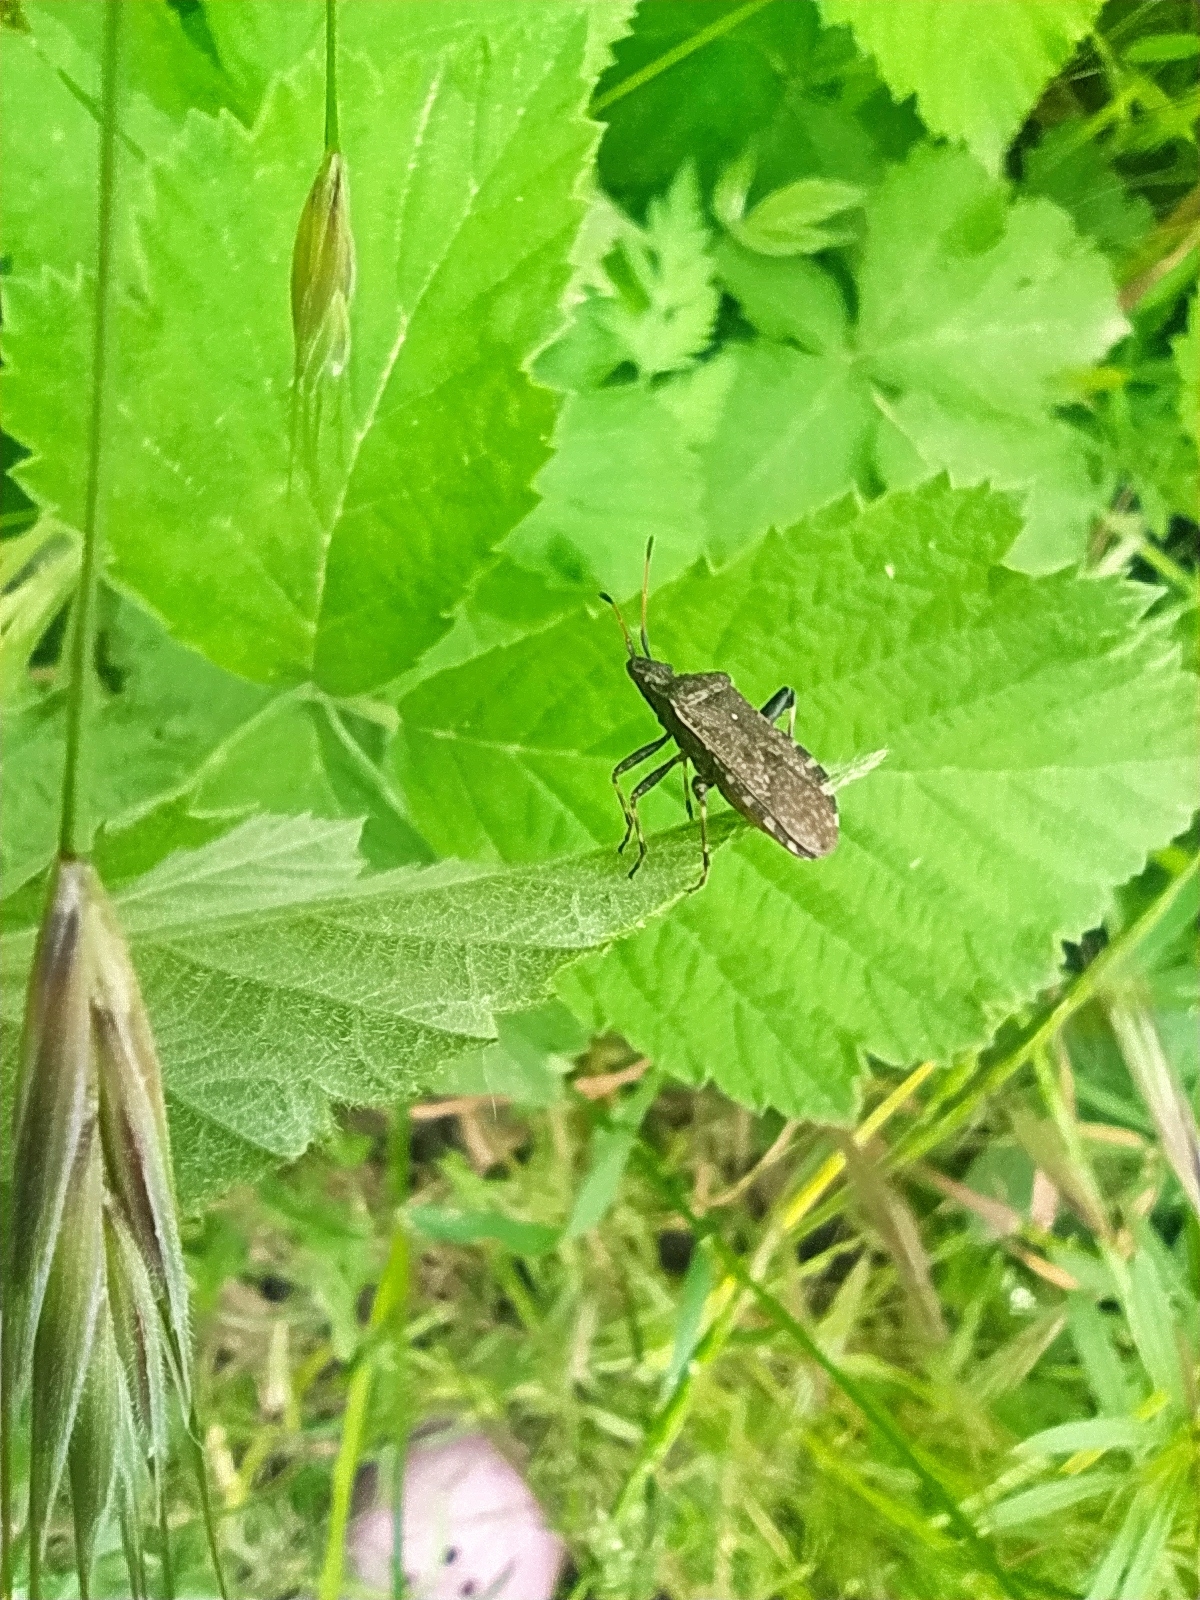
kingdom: Animalia
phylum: Arthropoda
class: Insecta
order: Hemiptera
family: Coreidae
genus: Ceraleptus
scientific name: Ceraleptus gracilicornis
